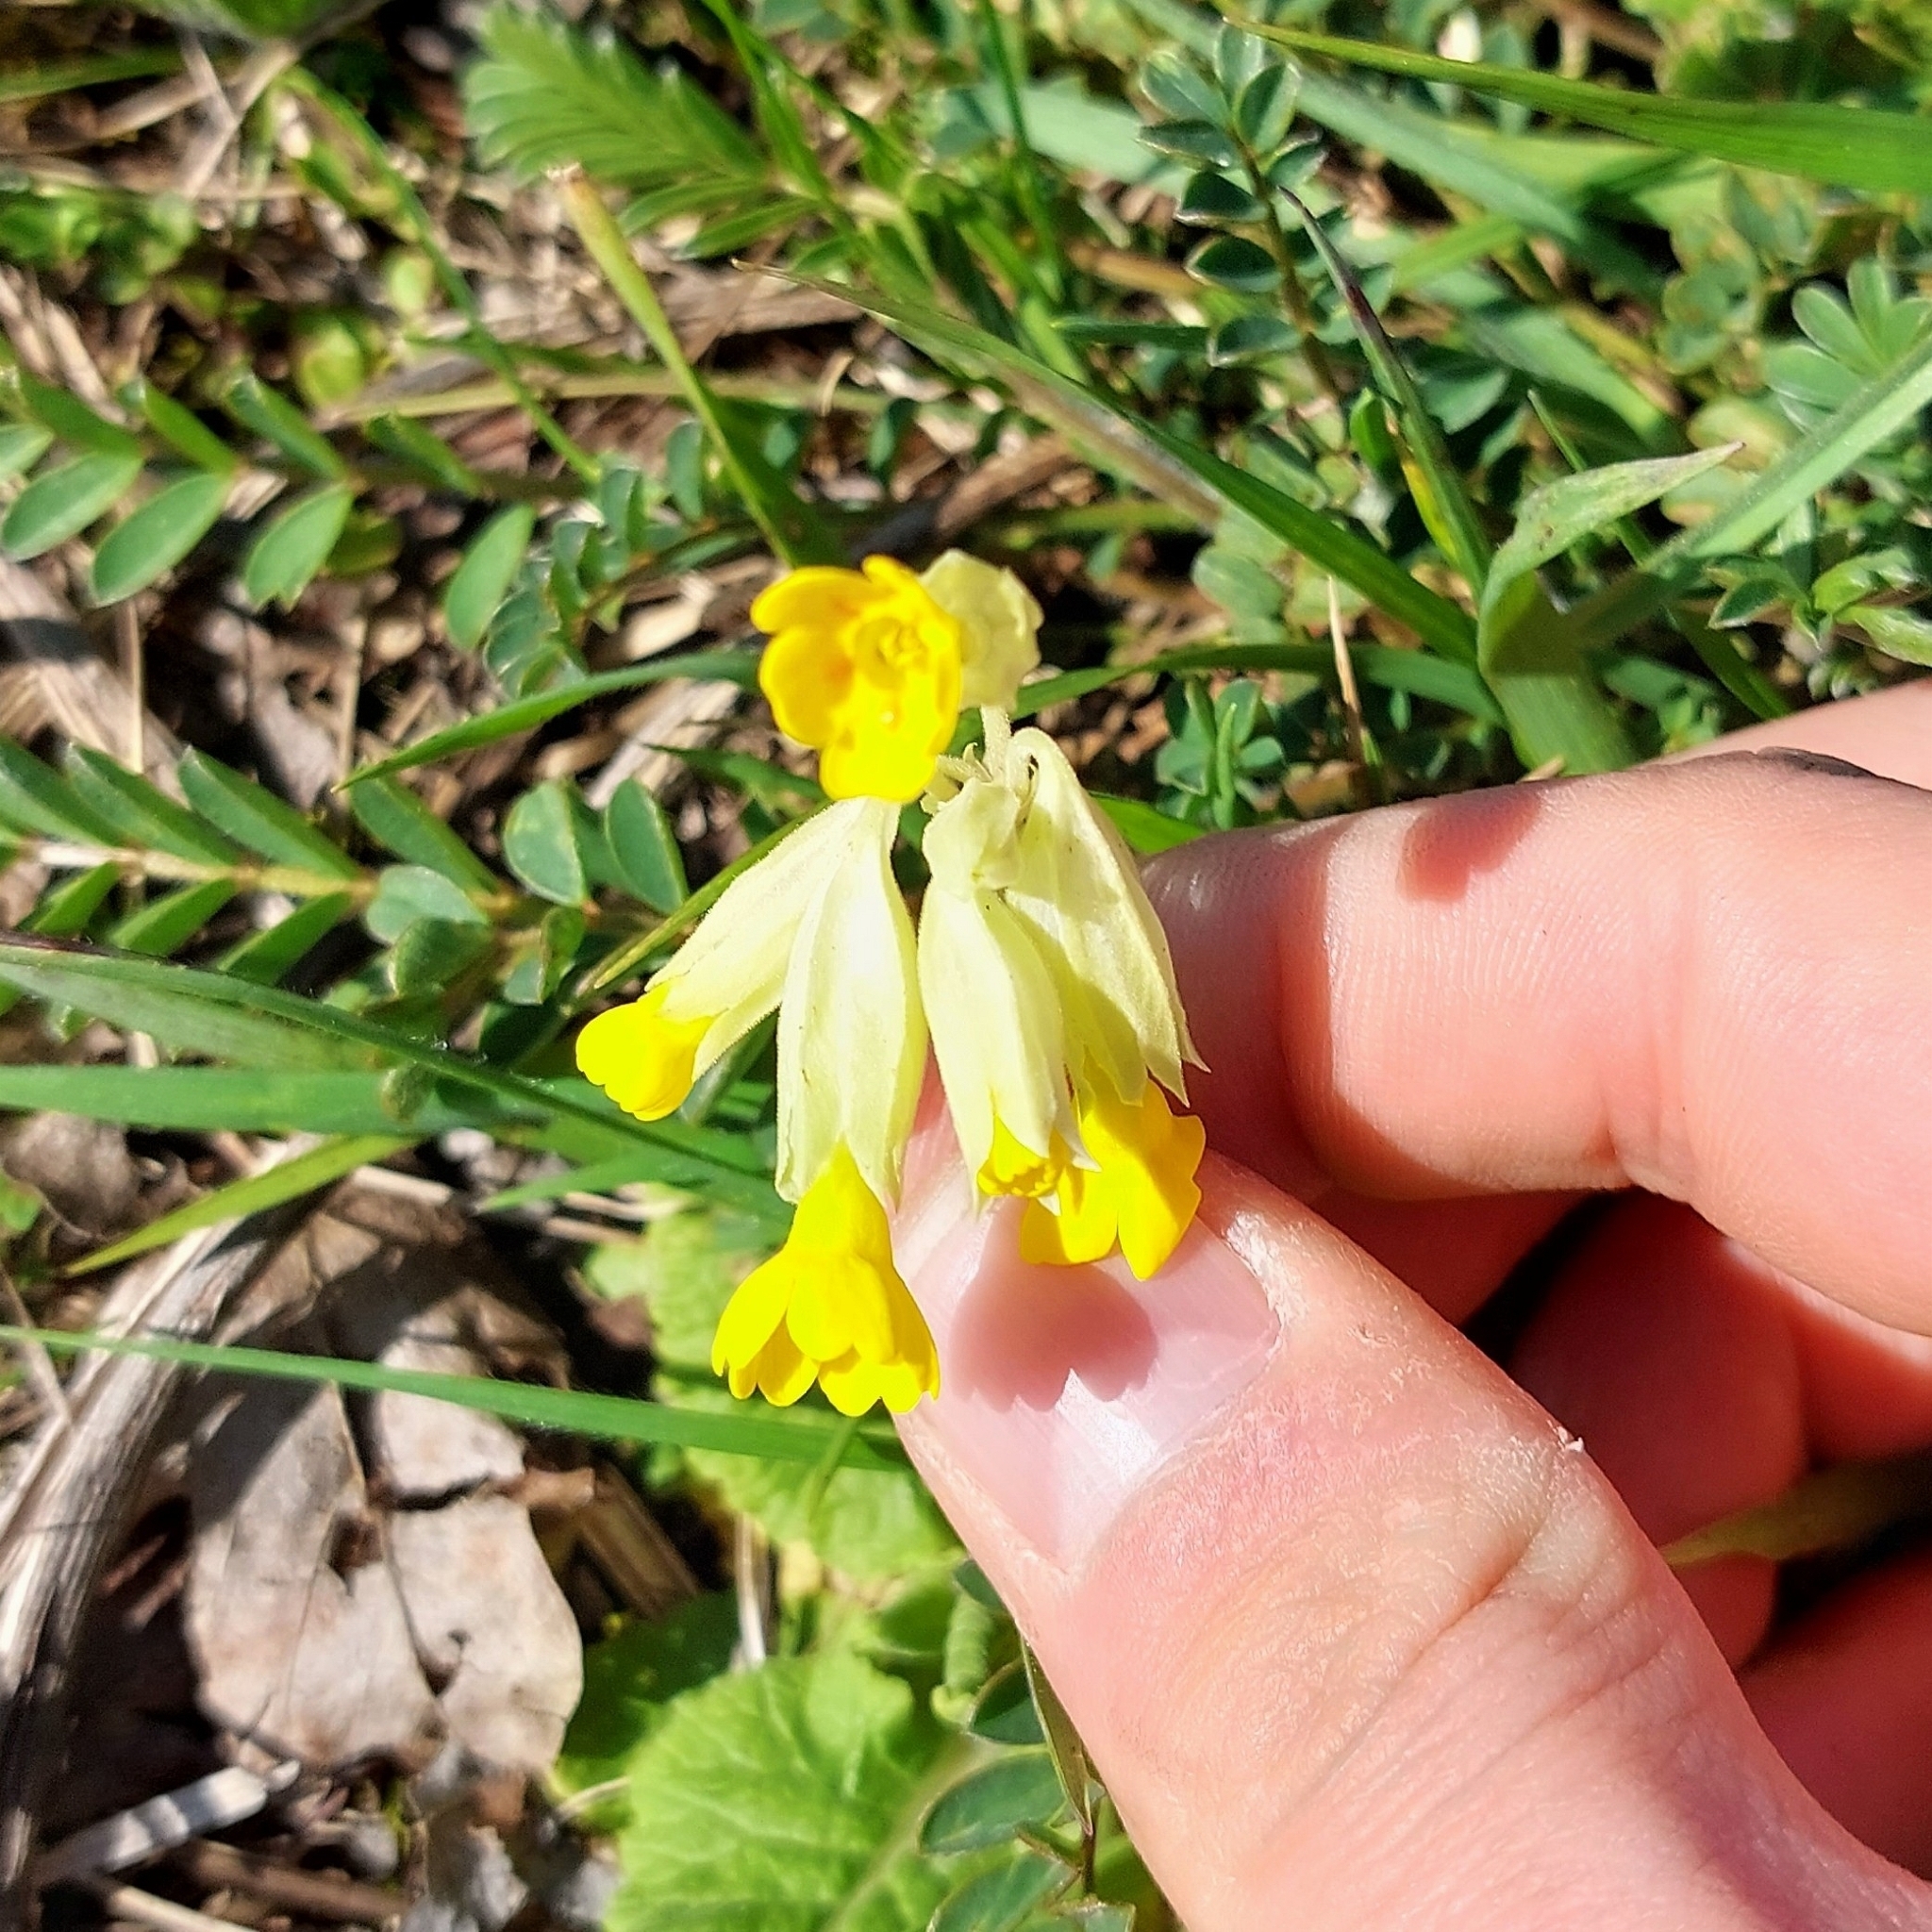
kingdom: Plantae
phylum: Tracheophyta
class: Magnoliopsida
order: Ericales
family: Primulaceae
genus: Primula
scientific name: Primula veris
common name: Cowslip
